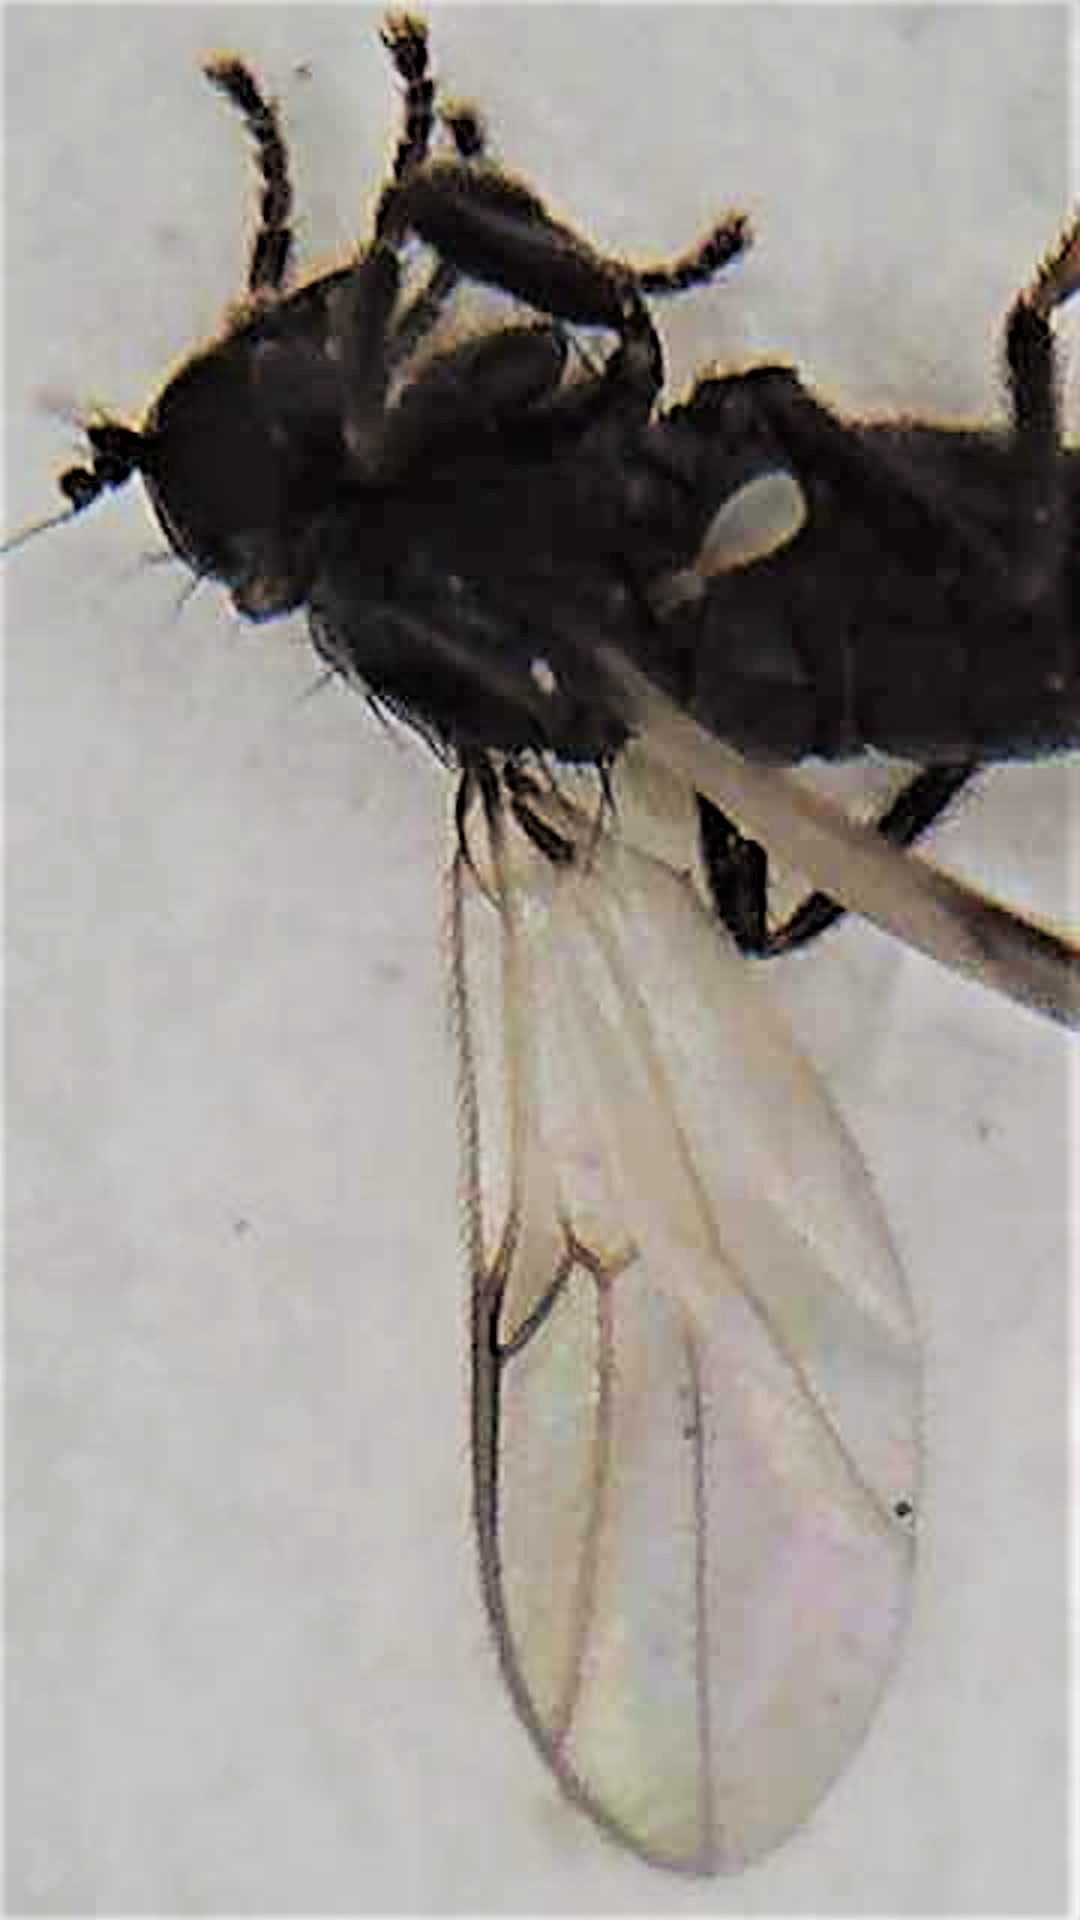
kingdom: Animalia
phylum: Arthropoda
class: Insecta
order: Diptera
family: Hybotidae
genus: Chersodromia
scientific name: Chersodromia zelandica
